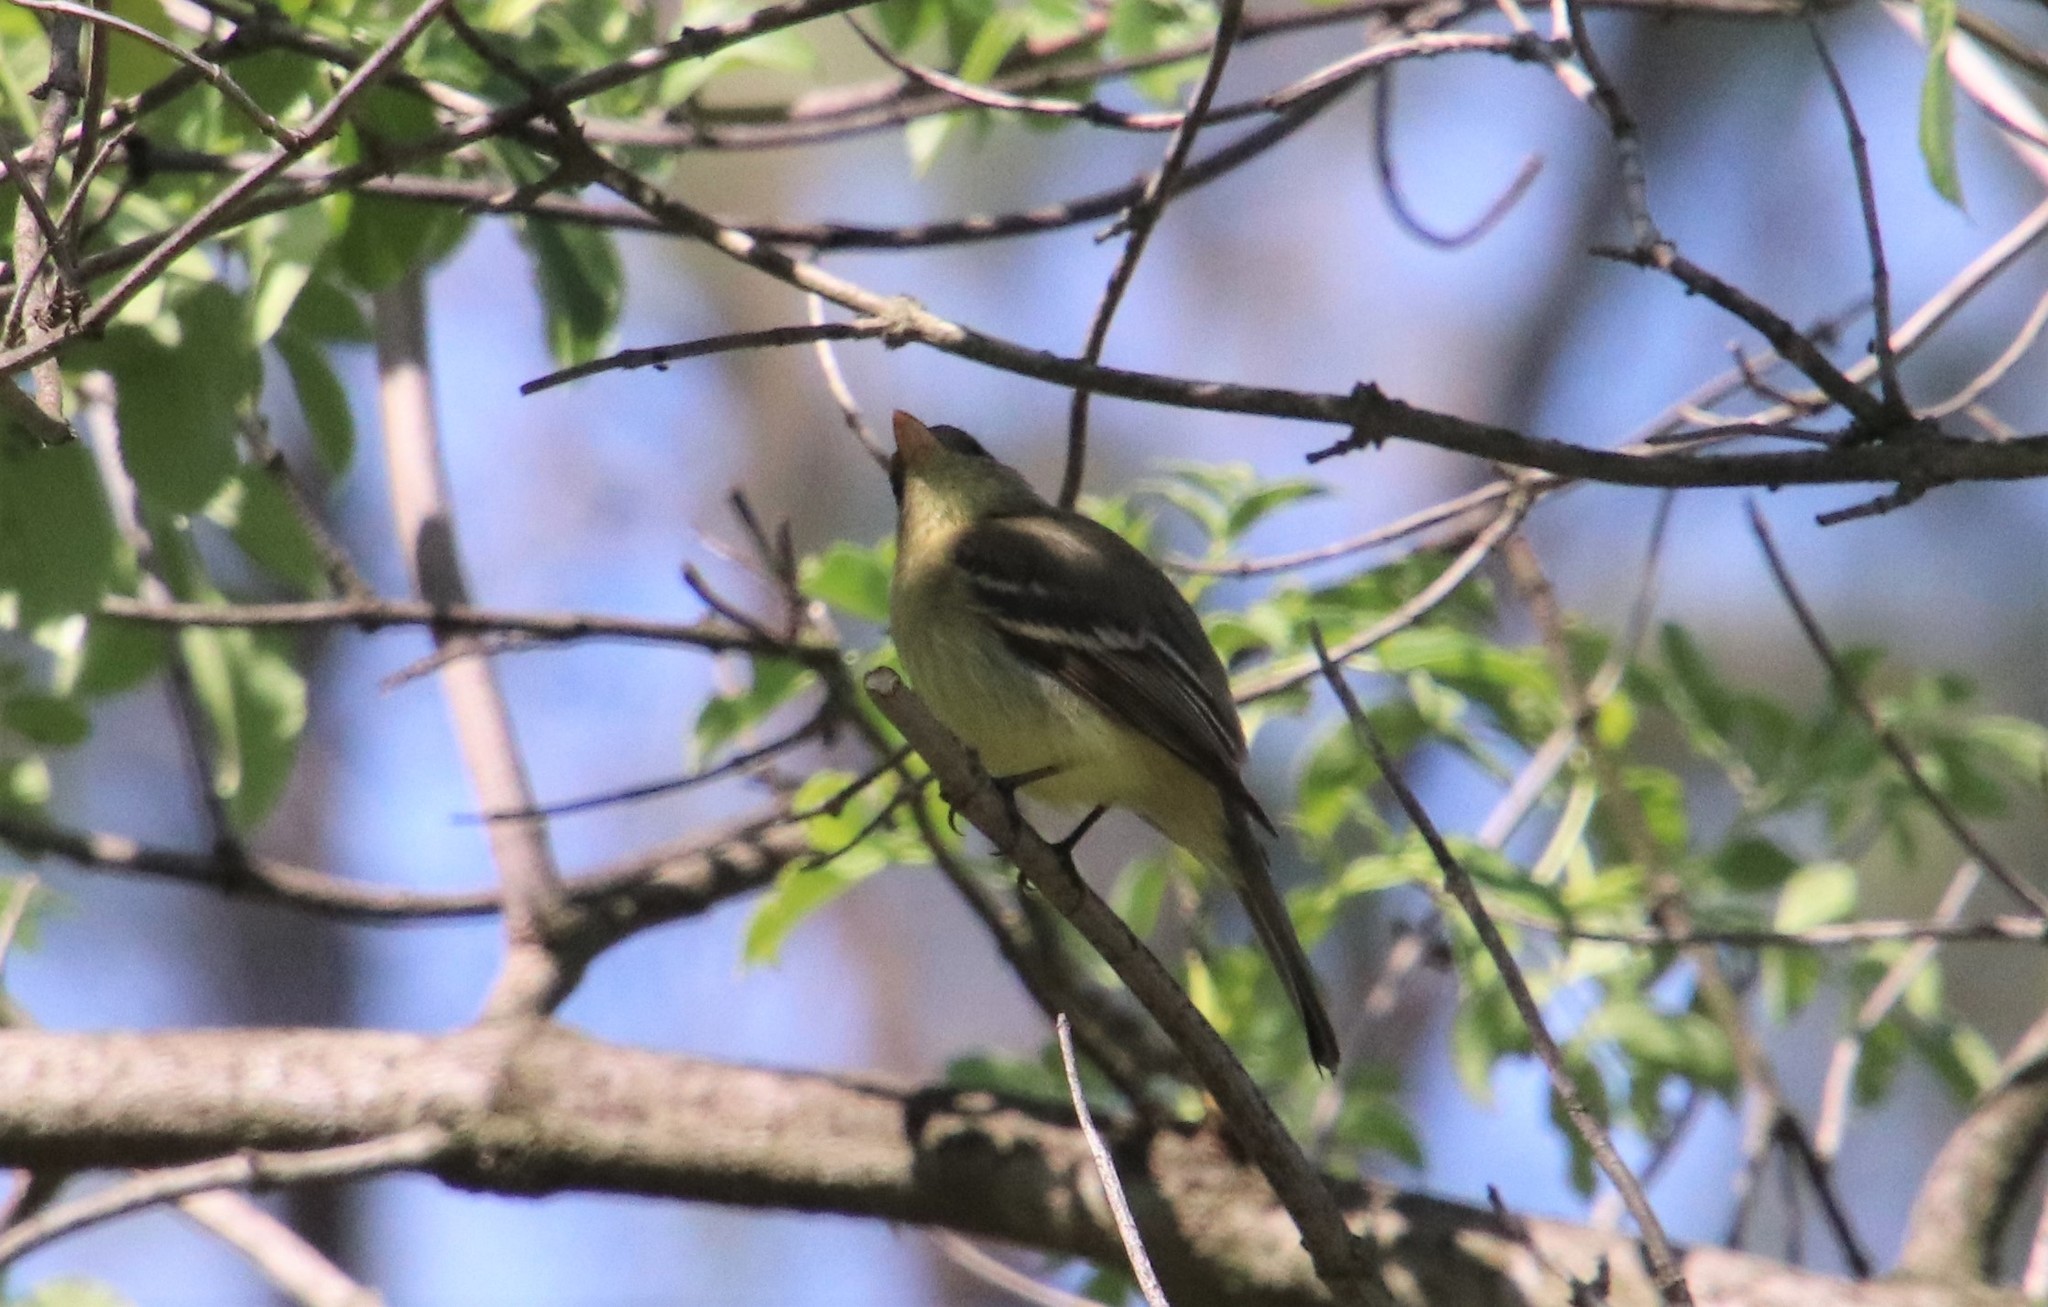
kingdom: Animalia
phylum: Chordata
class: Aves
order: Passeriformes
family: Tyrannidae
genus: Empidonax
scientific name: Empidonax difficilis
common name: Pacific-slope flycatcher
